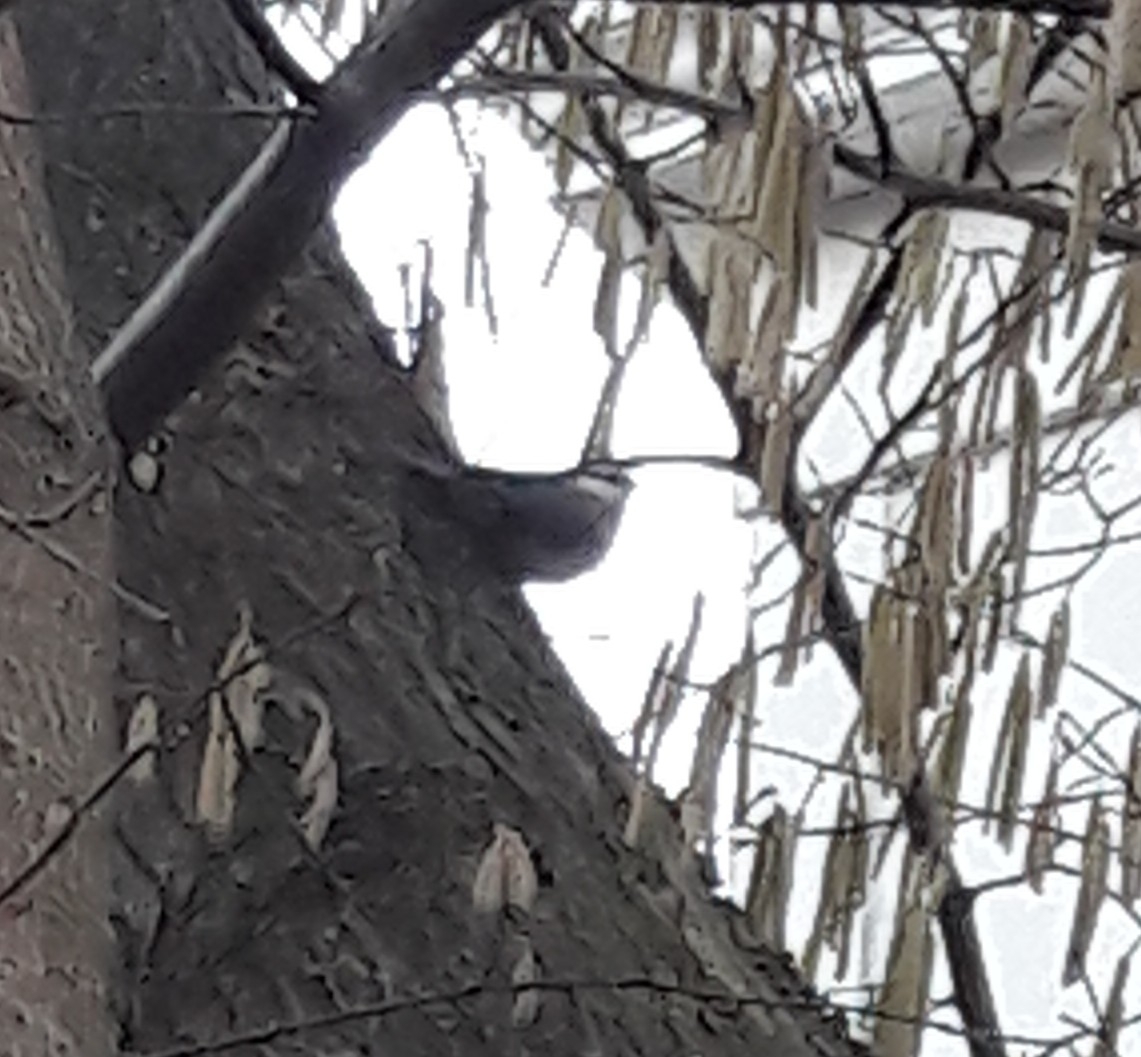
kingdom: Animalia
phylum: Chordata
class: Aves
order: Passeriformes
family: Sittidae
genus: Sitta
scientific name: Sitta europaea
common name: Eurasian nuthatch
